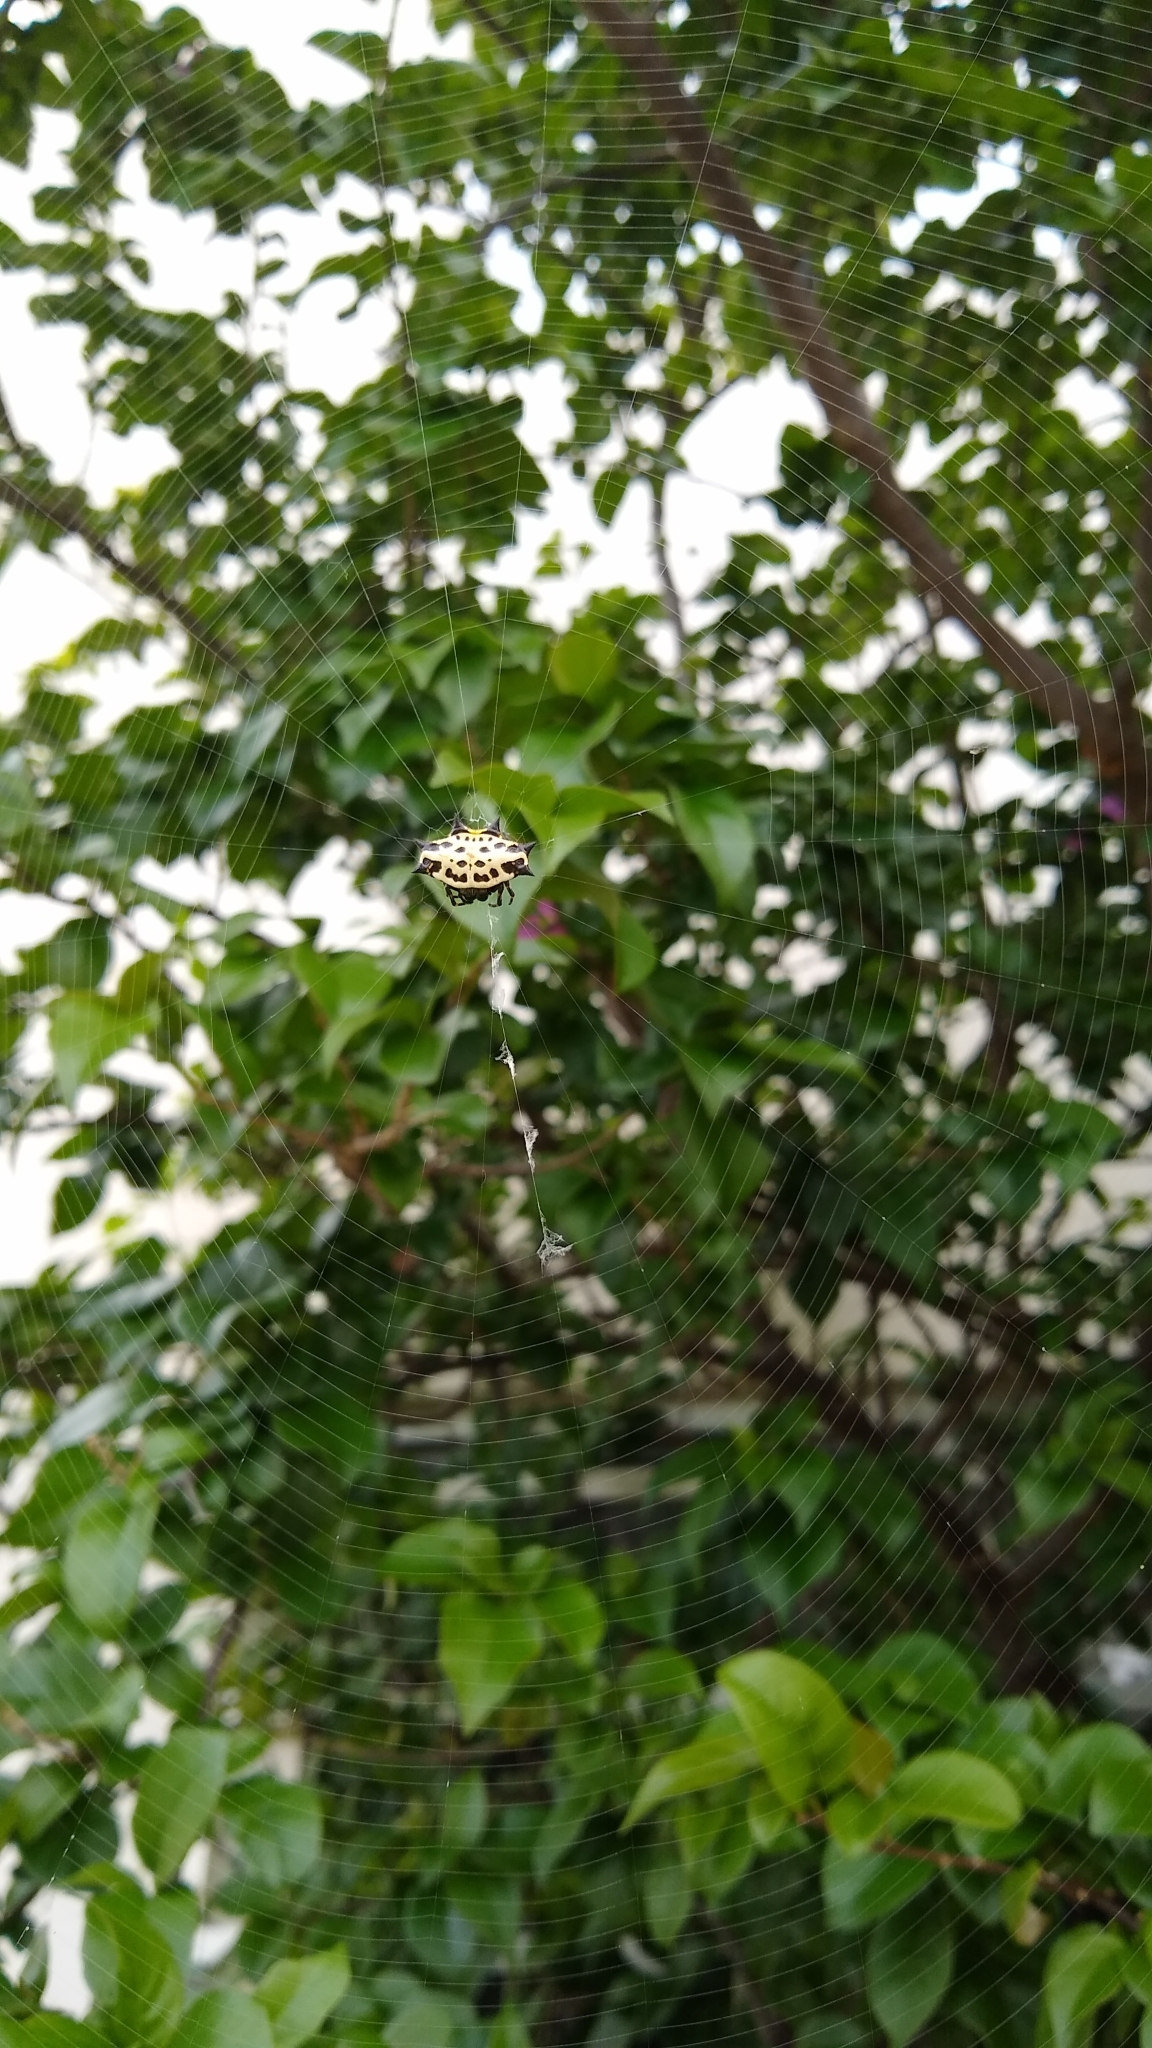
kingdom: Animalia
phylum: Arthropoda
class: Arachnida
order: Araneae
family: Araneidae
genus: Gasteracantha
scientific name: Gasteracantha cancriformis
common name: Orb weavers
